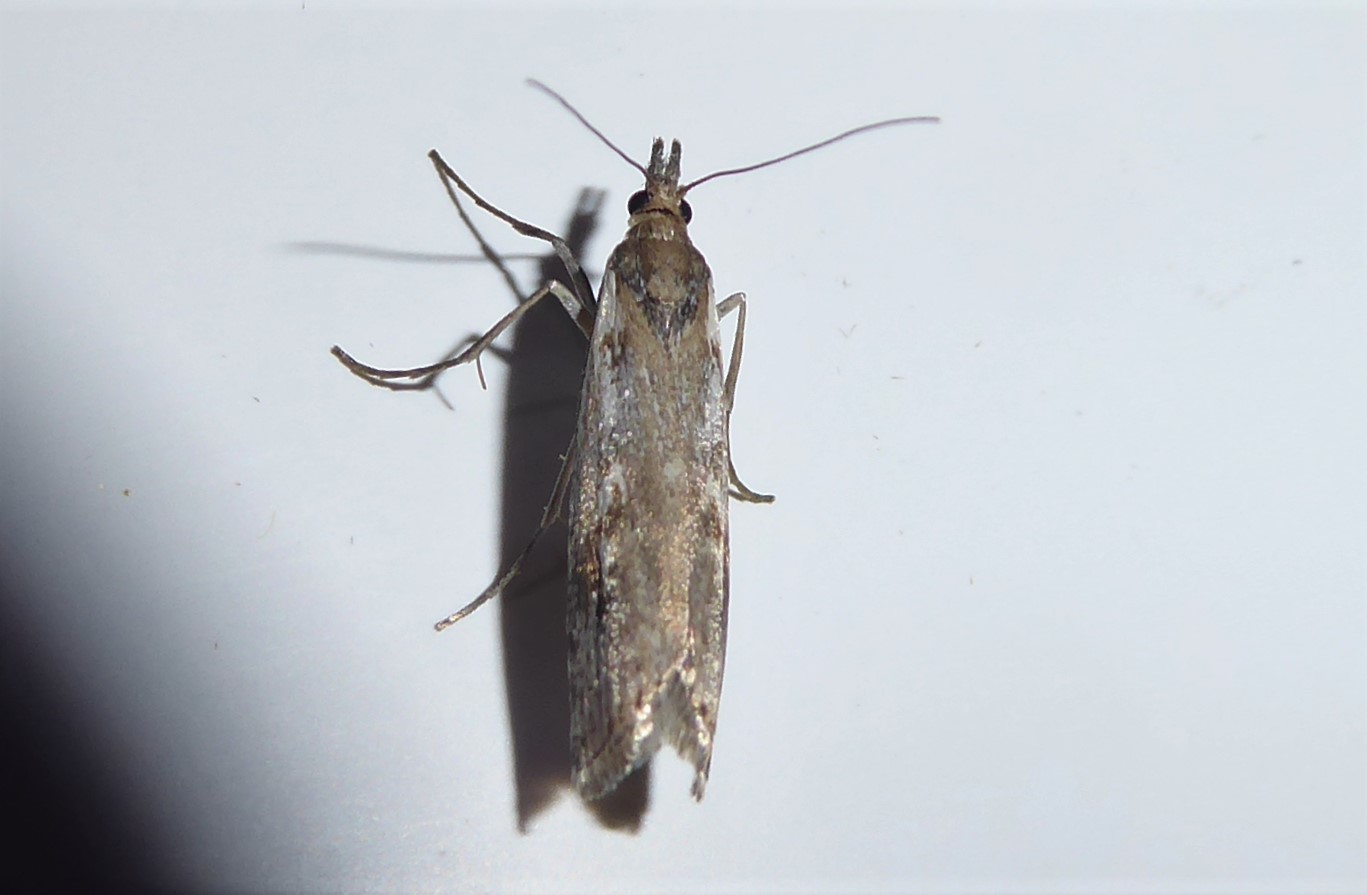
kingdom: Animalia
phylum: Arthropoda
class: Insecta
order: Lepidoptera
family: Crambidae
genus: Orocrambus
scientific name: Orocrambus vulgaris
